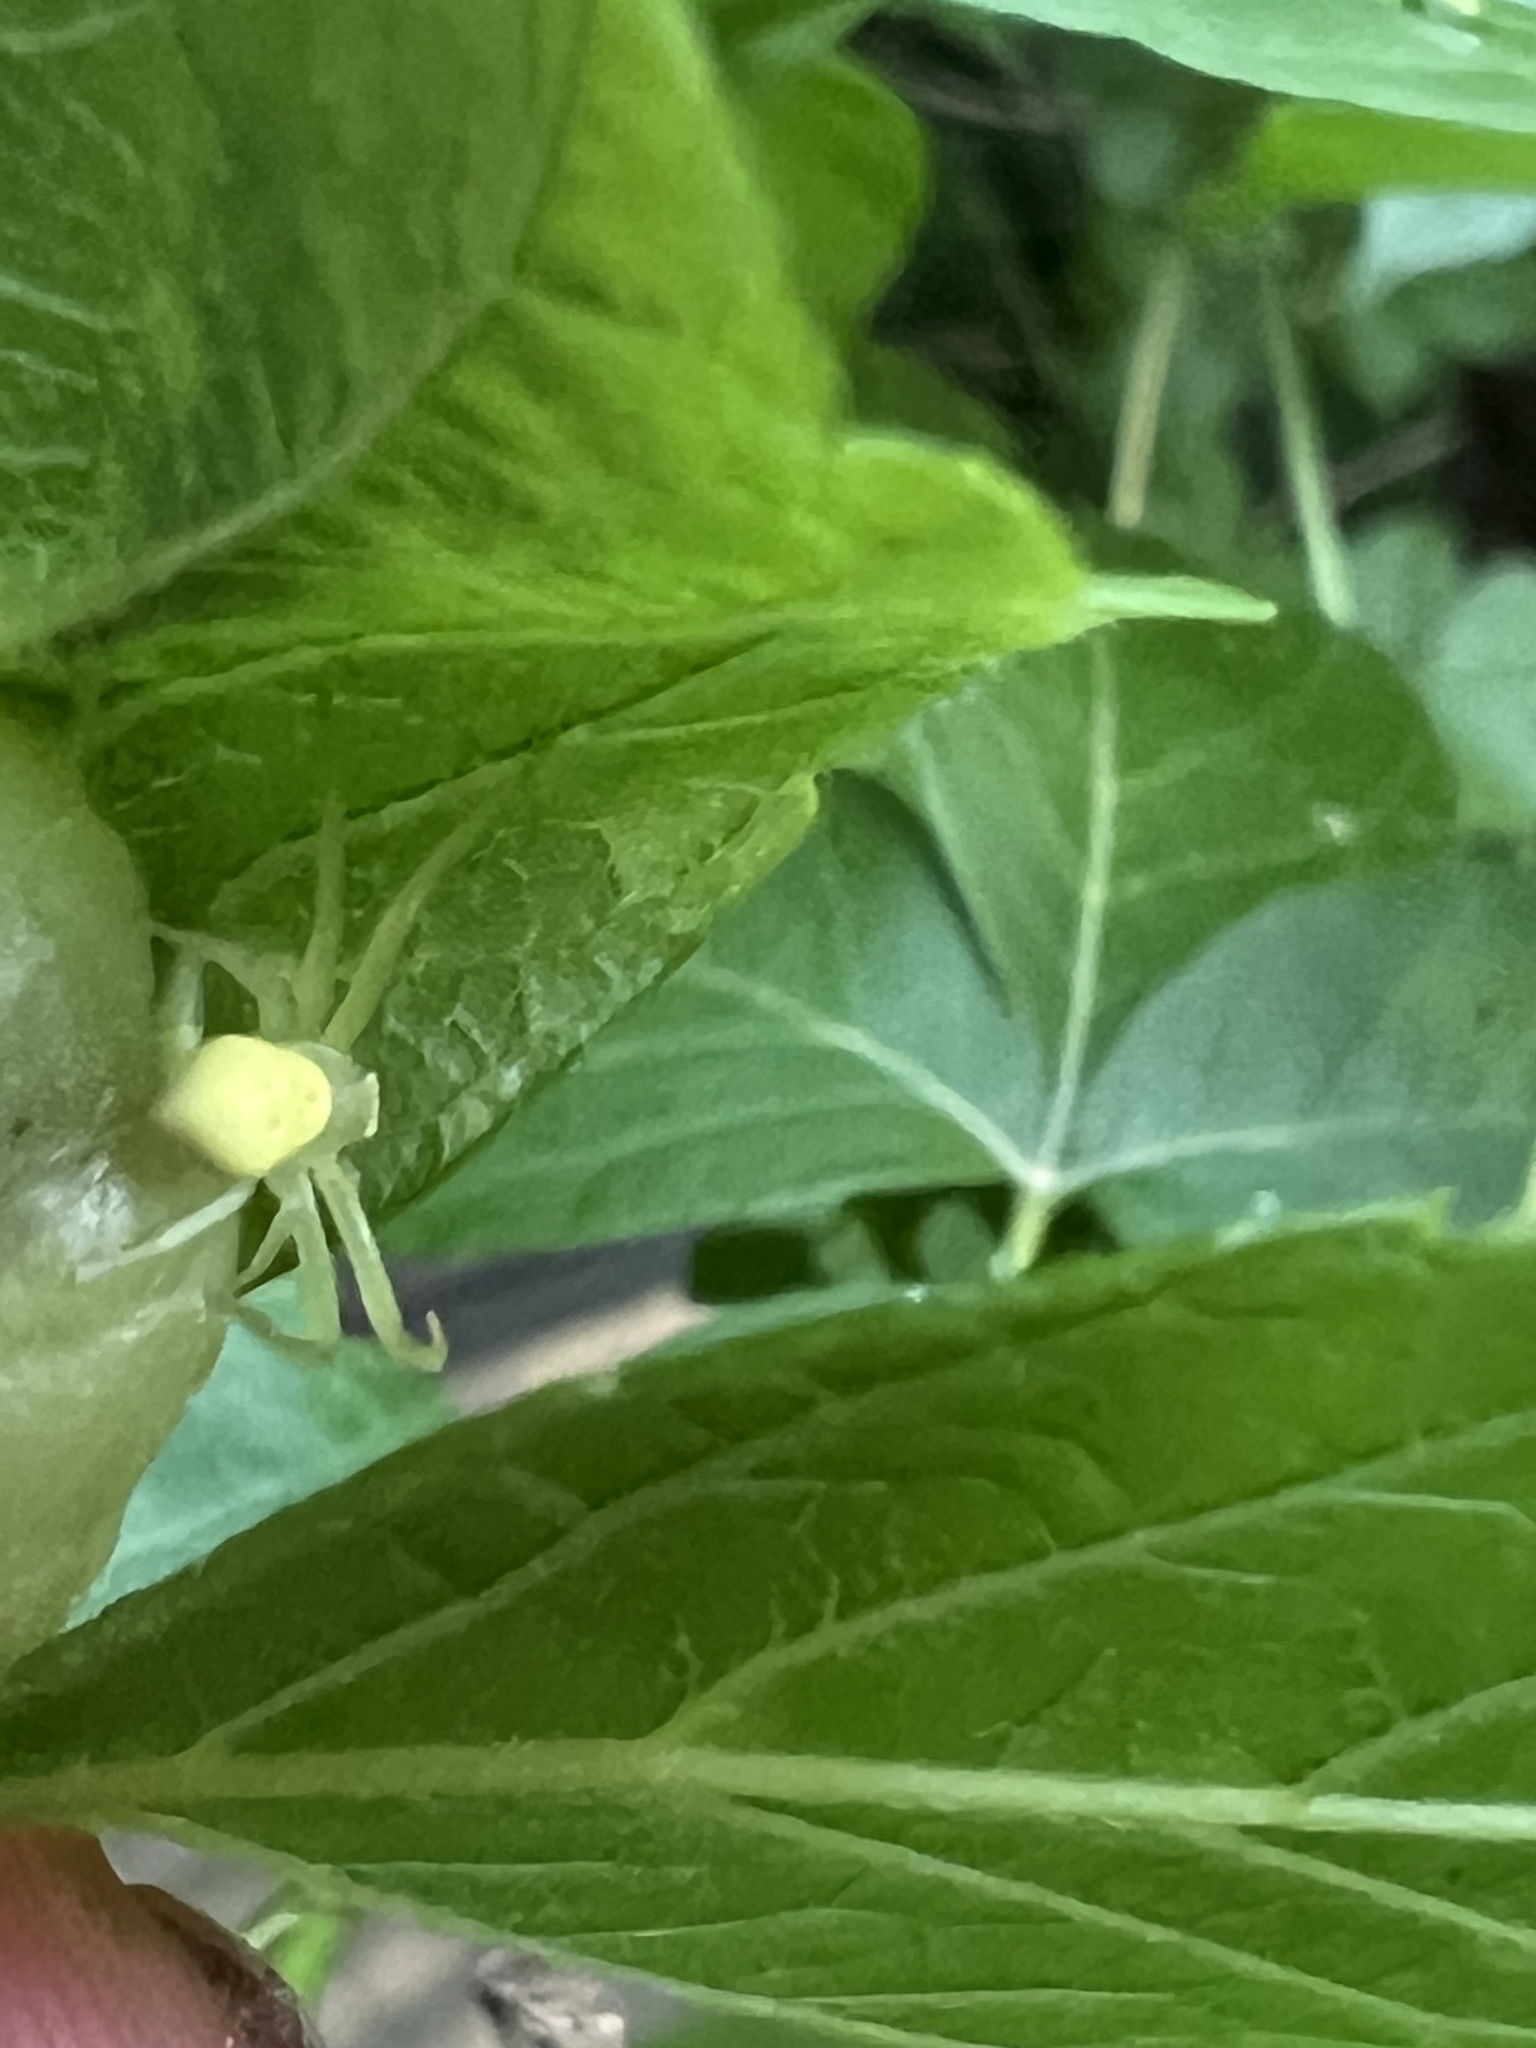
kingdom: Animalia
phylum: Arthropoda
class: Arachnida
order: Araneae
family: Thomisidae
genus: Misumessus
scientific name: Misumessus oblongus
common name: American green crab spider
